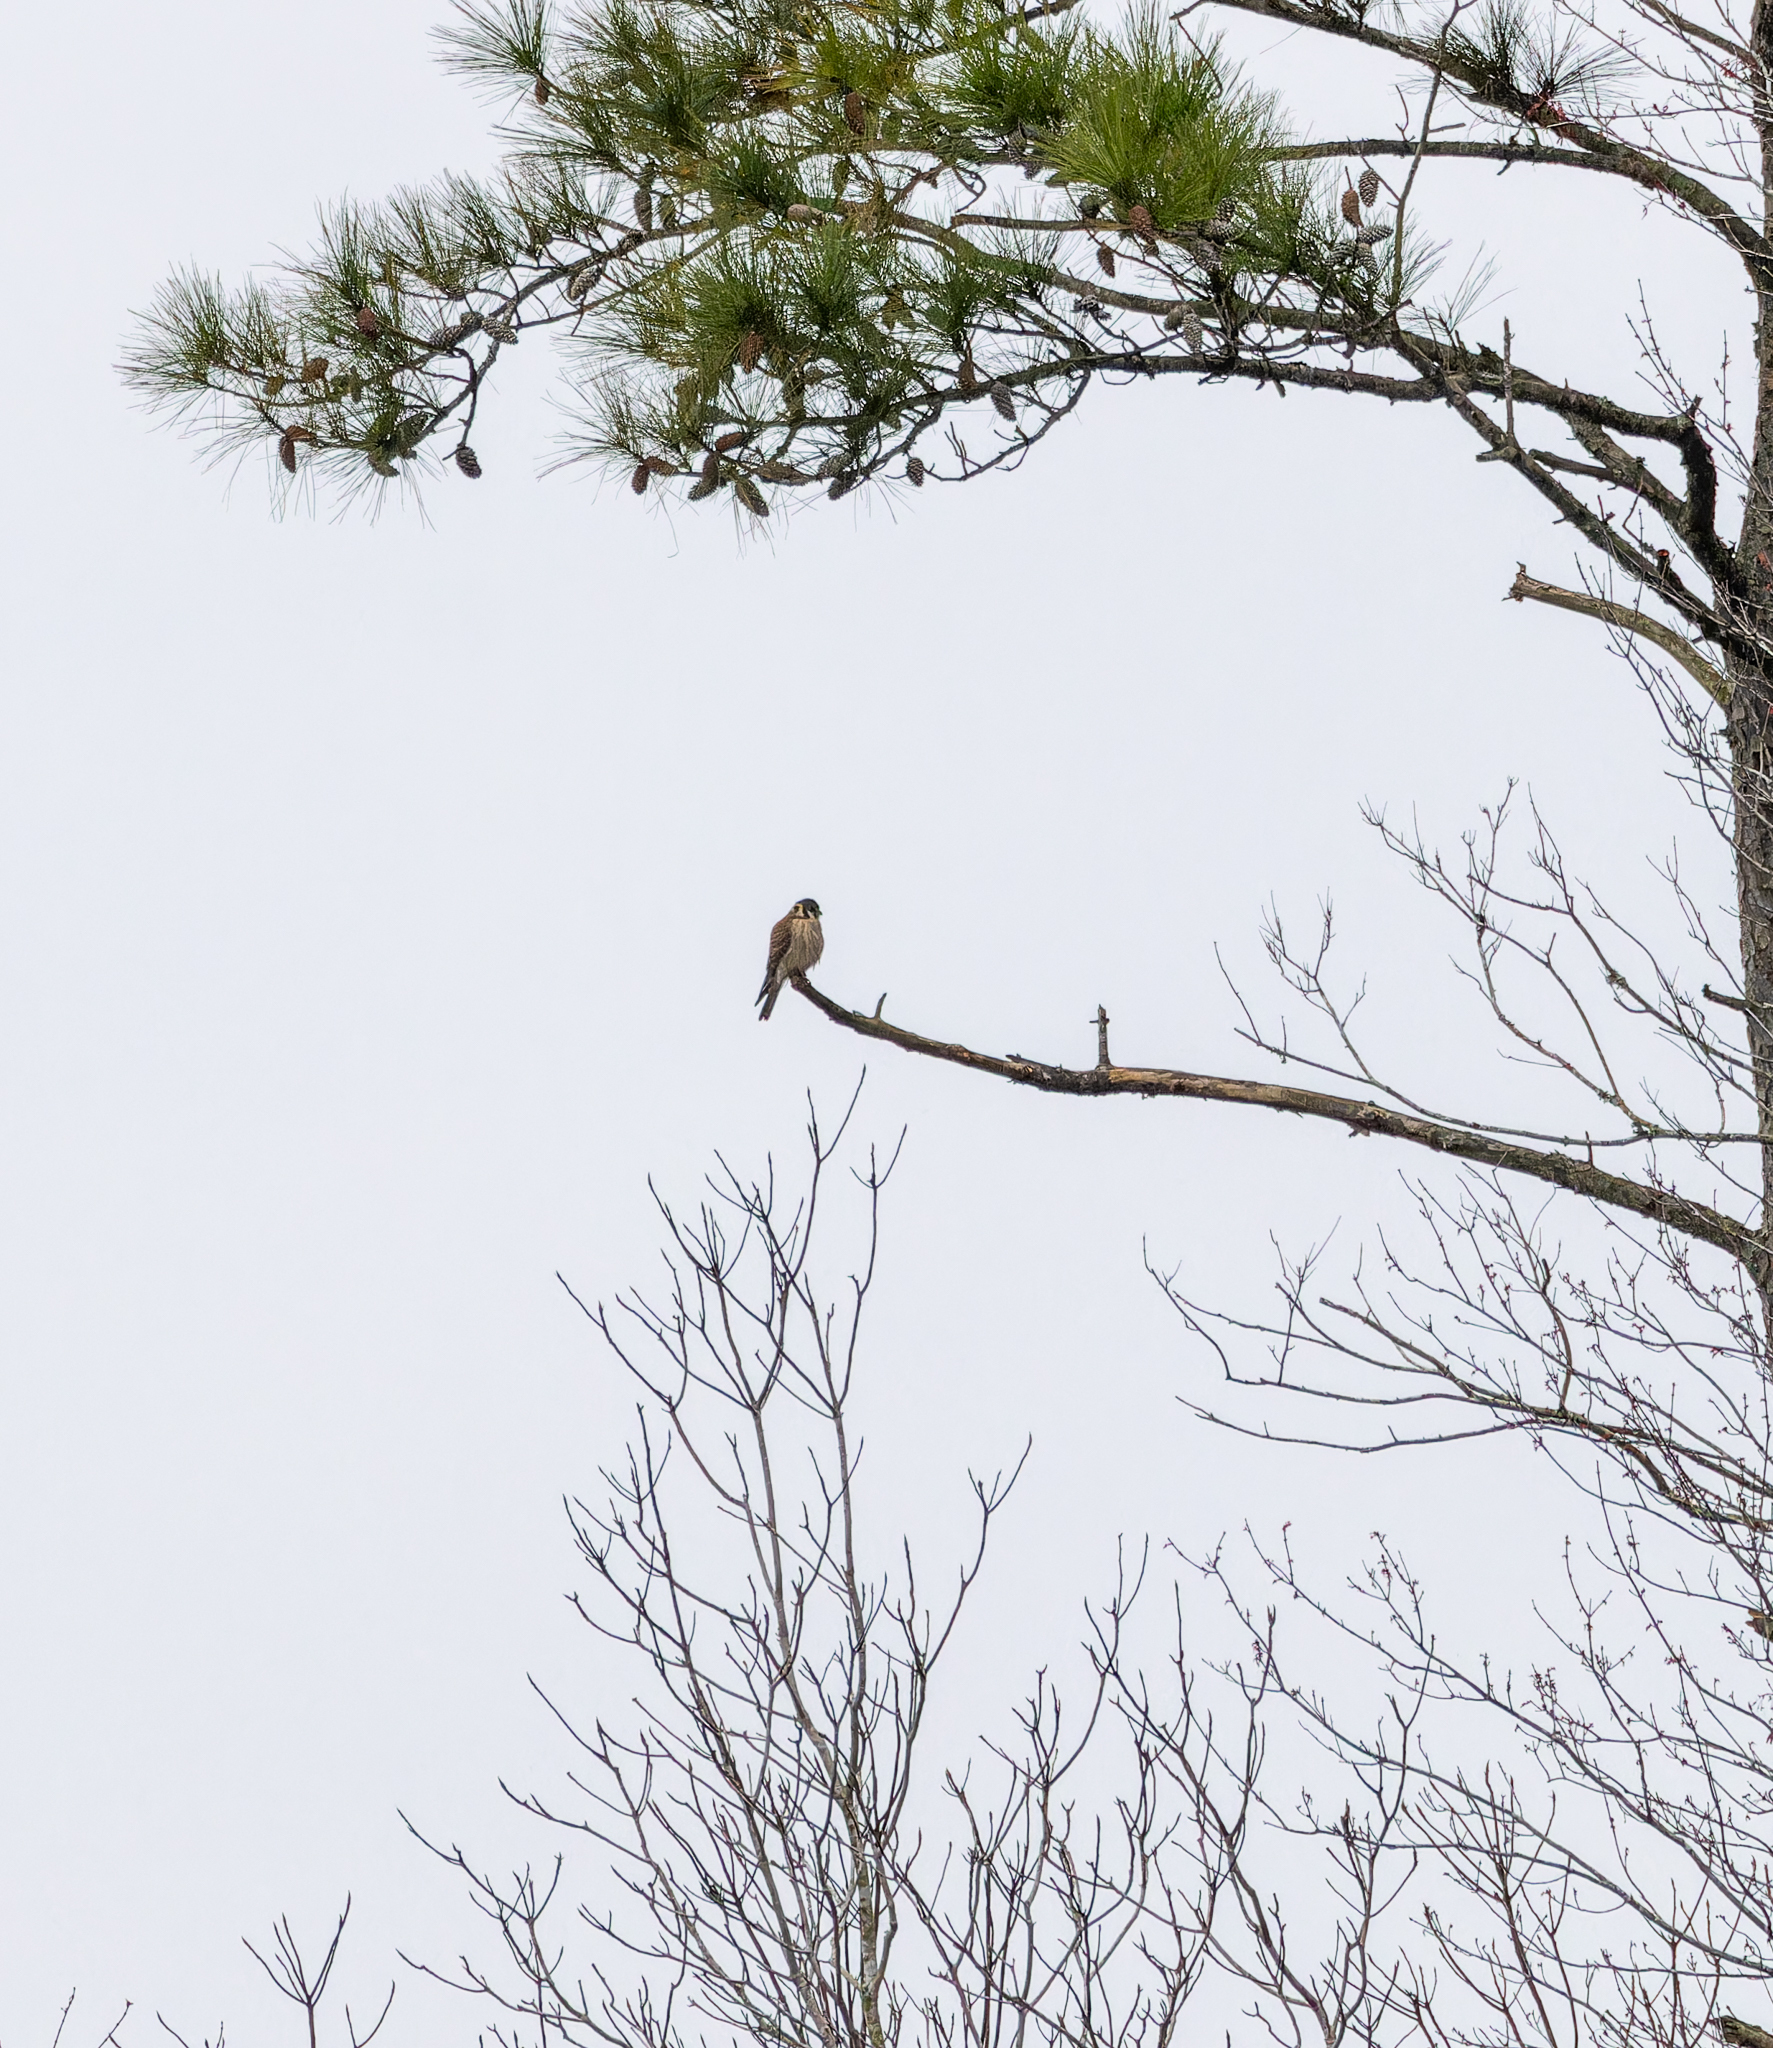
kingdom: Animalia
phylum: Chordata
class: Aves
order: Falconiformes
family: Falconidae
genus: Falco
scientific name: Falco sparverius
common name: American kestrel
